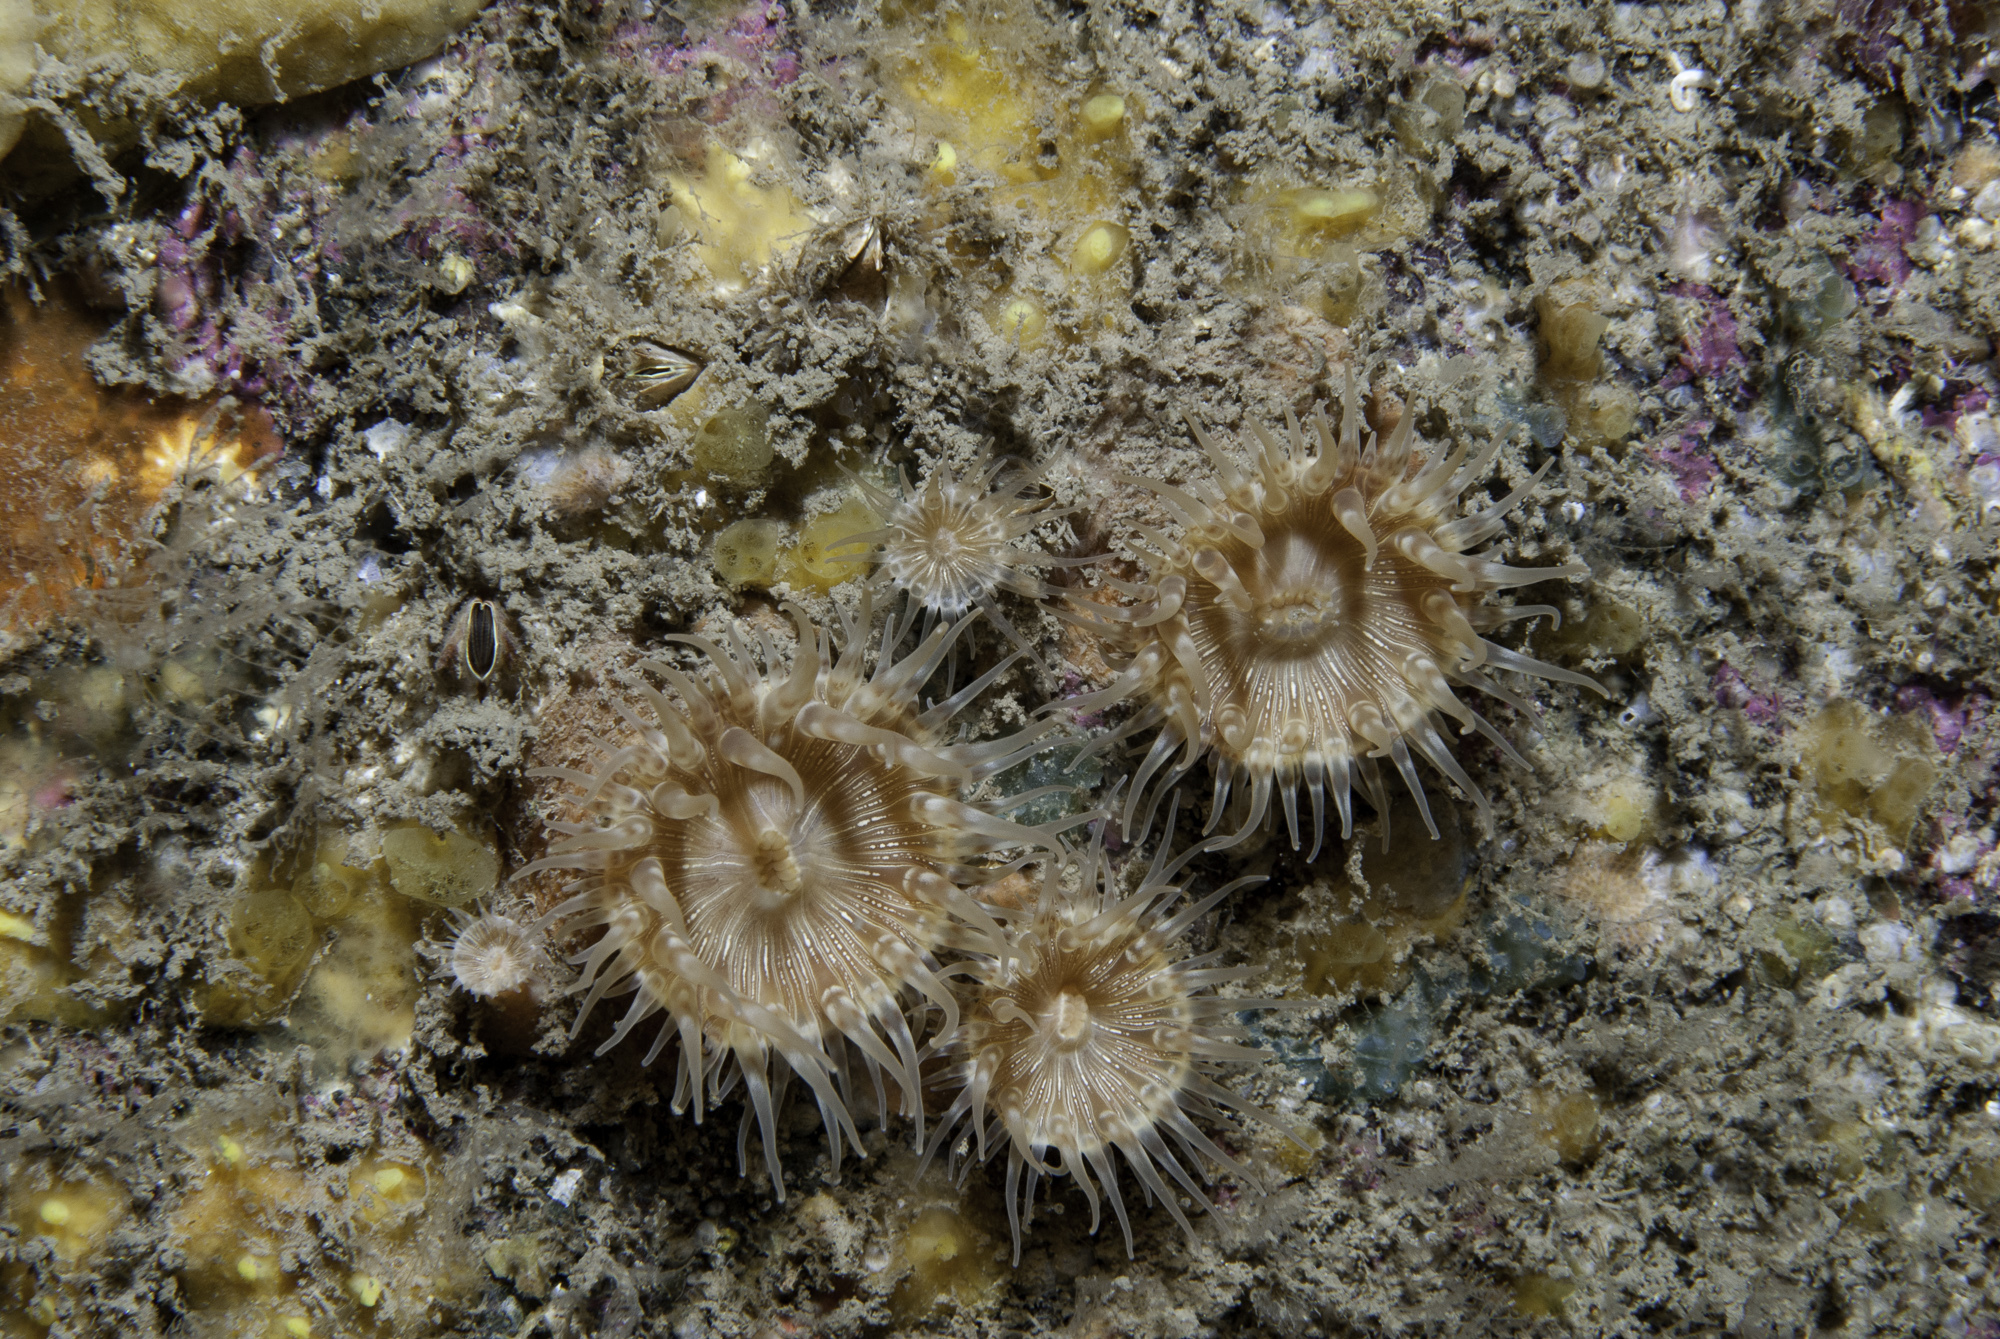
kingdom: Animalia
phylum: Cnidaria
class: Anthozoa
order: Actiniaria
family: Hormathiidae
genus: Hormathia
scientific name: Hormathia coronata
